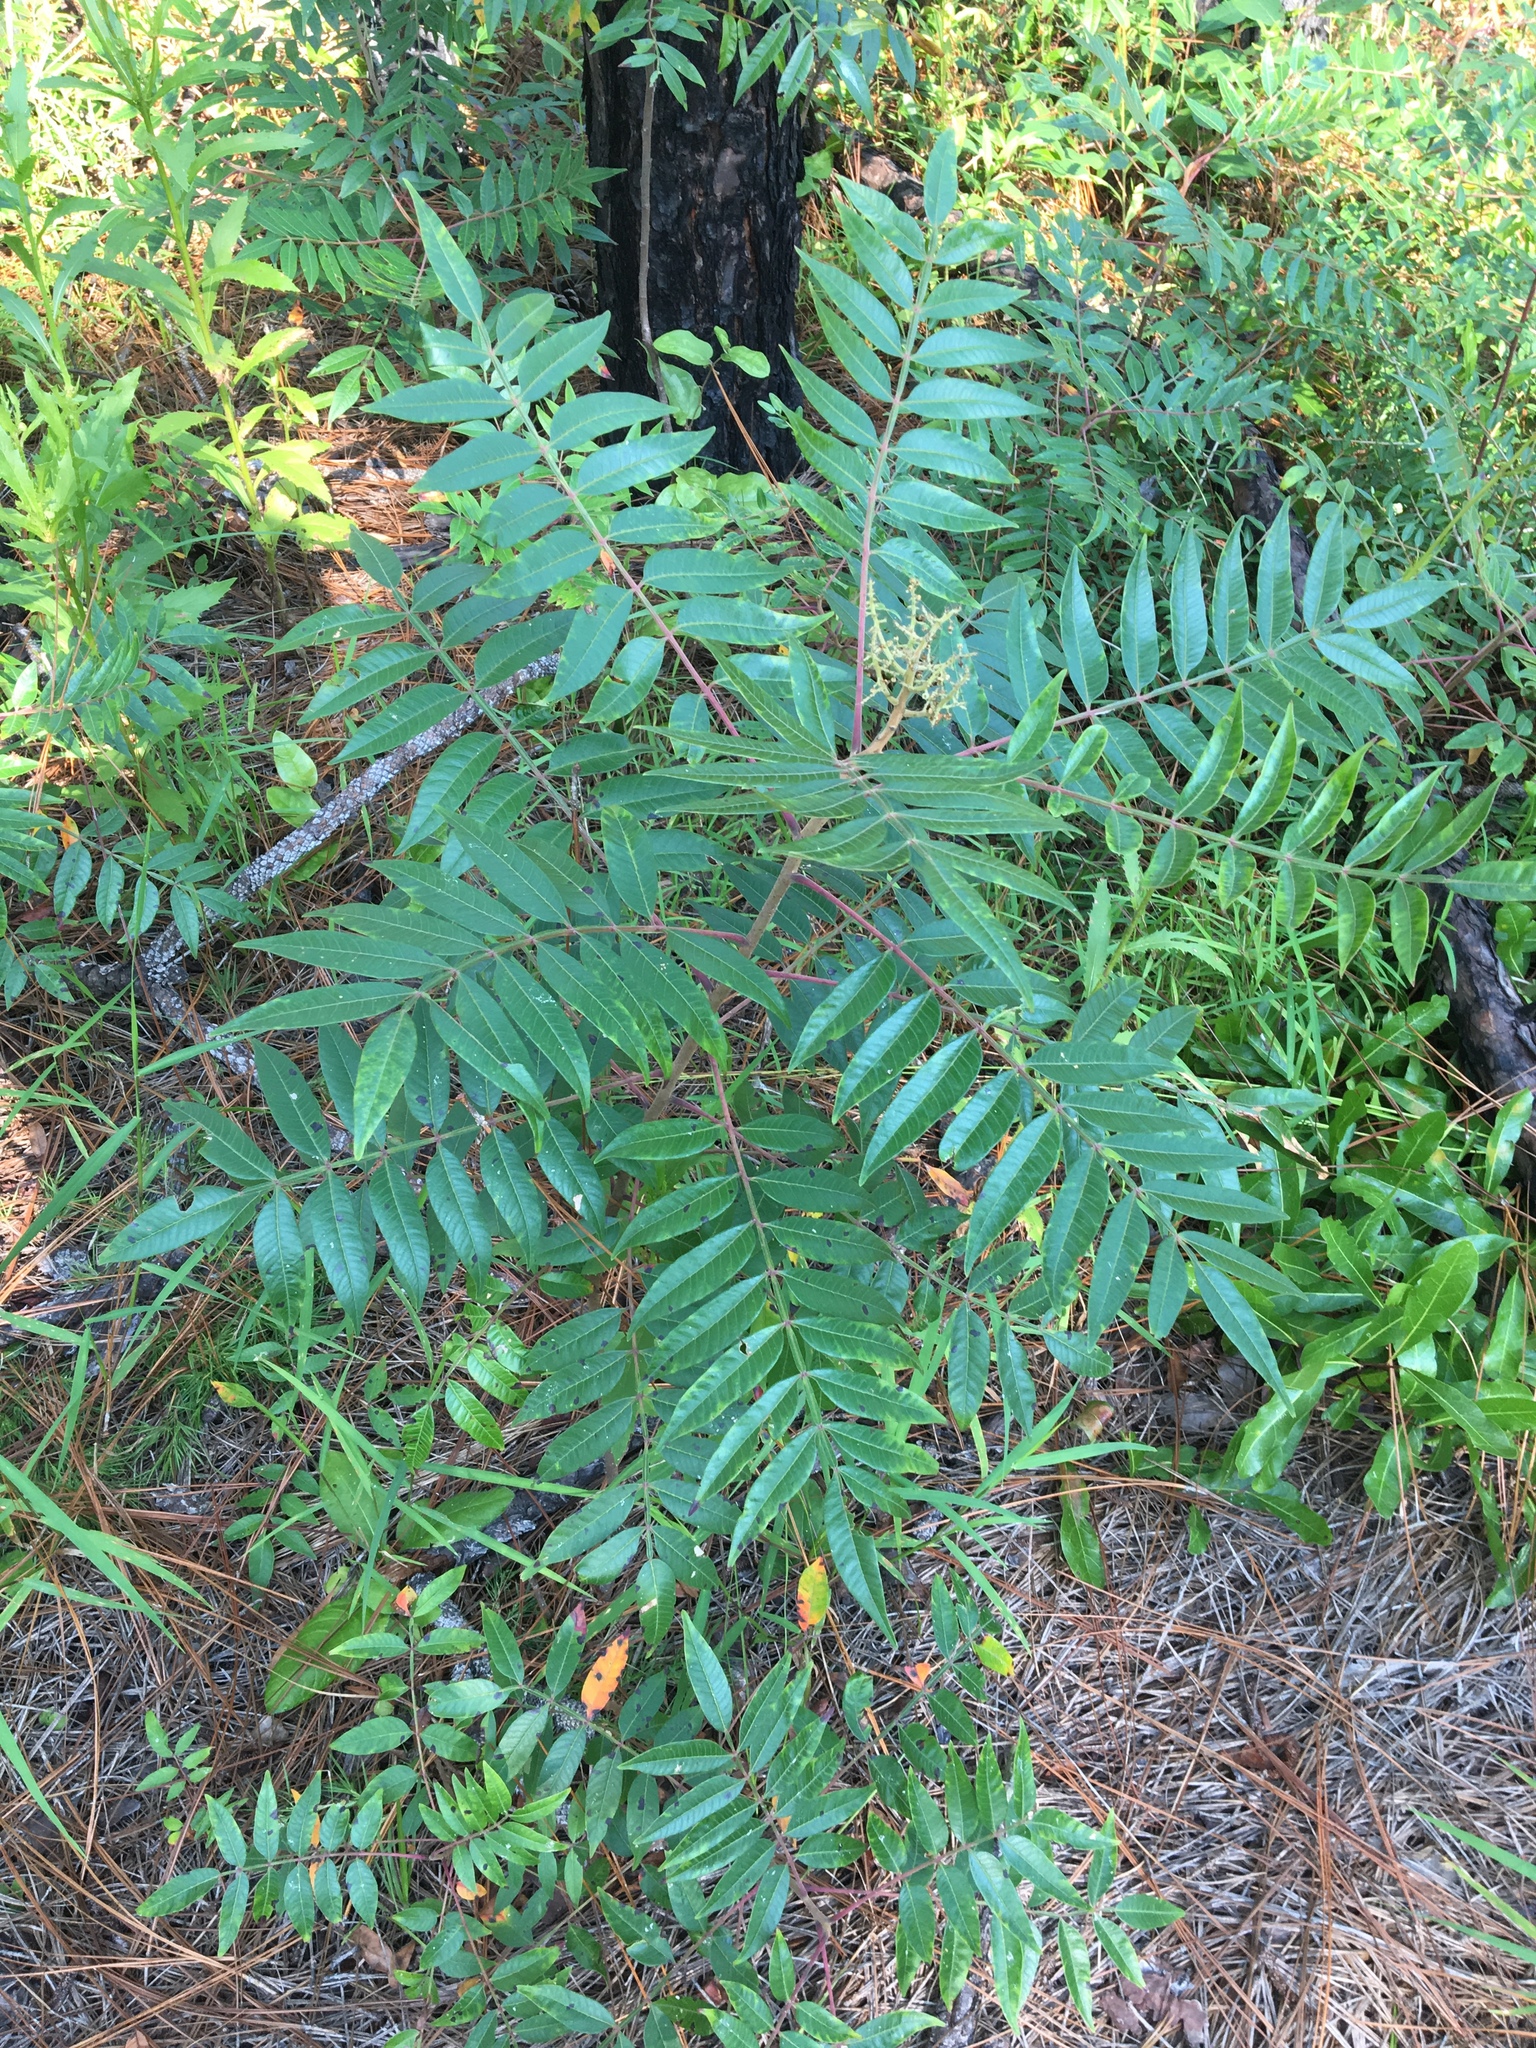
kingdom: Plantae
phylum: Tracheophyta
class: Magnoliopsida
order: Sapindales
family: Anacardiaceae
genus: Rhus
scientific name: Rhus copallina
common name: Shining sumac
